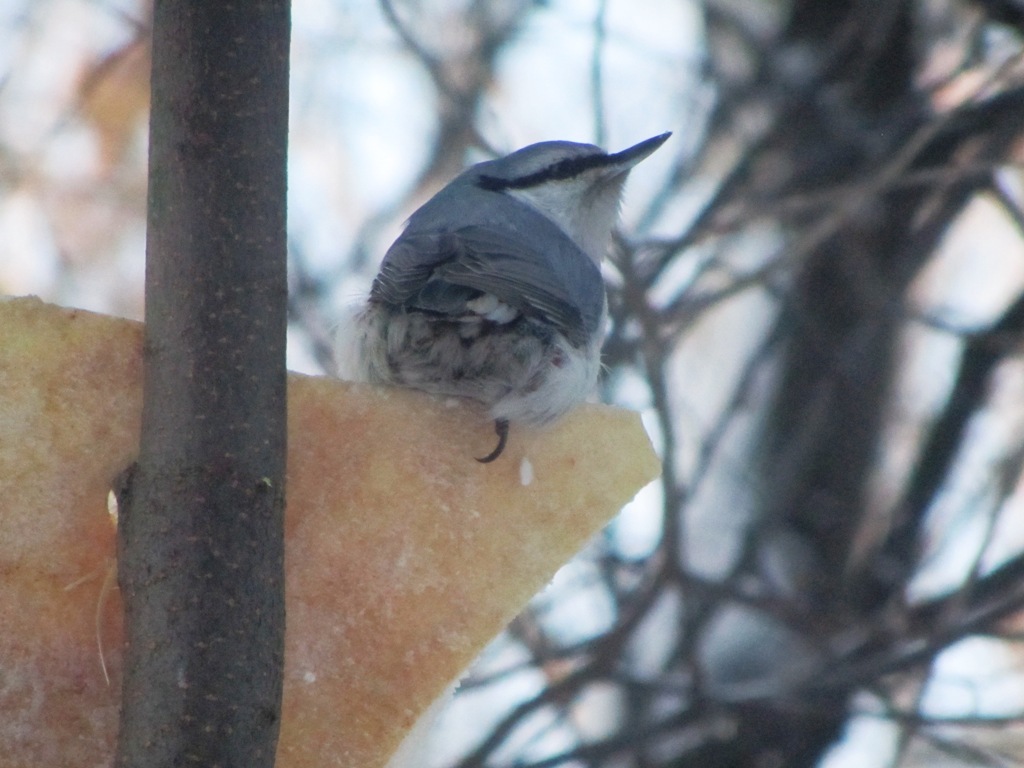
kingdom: Animalia
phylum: Chordata
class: Aves
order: Passeriformes
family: Sittidae
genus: Sitta
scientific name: Sitta europaea
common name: Eurasian nuthatch
